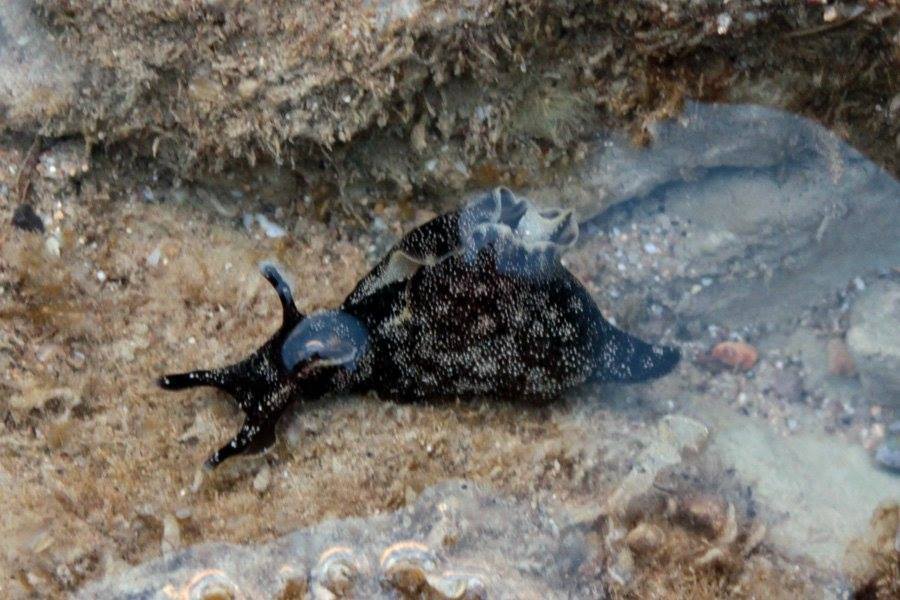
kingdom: Animalia
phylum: Mollusca
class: Gastropoda
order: Aplysiida
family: Aplysiidae
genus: Aplysia
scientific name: Aplysia punctata
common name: Common sea hare
